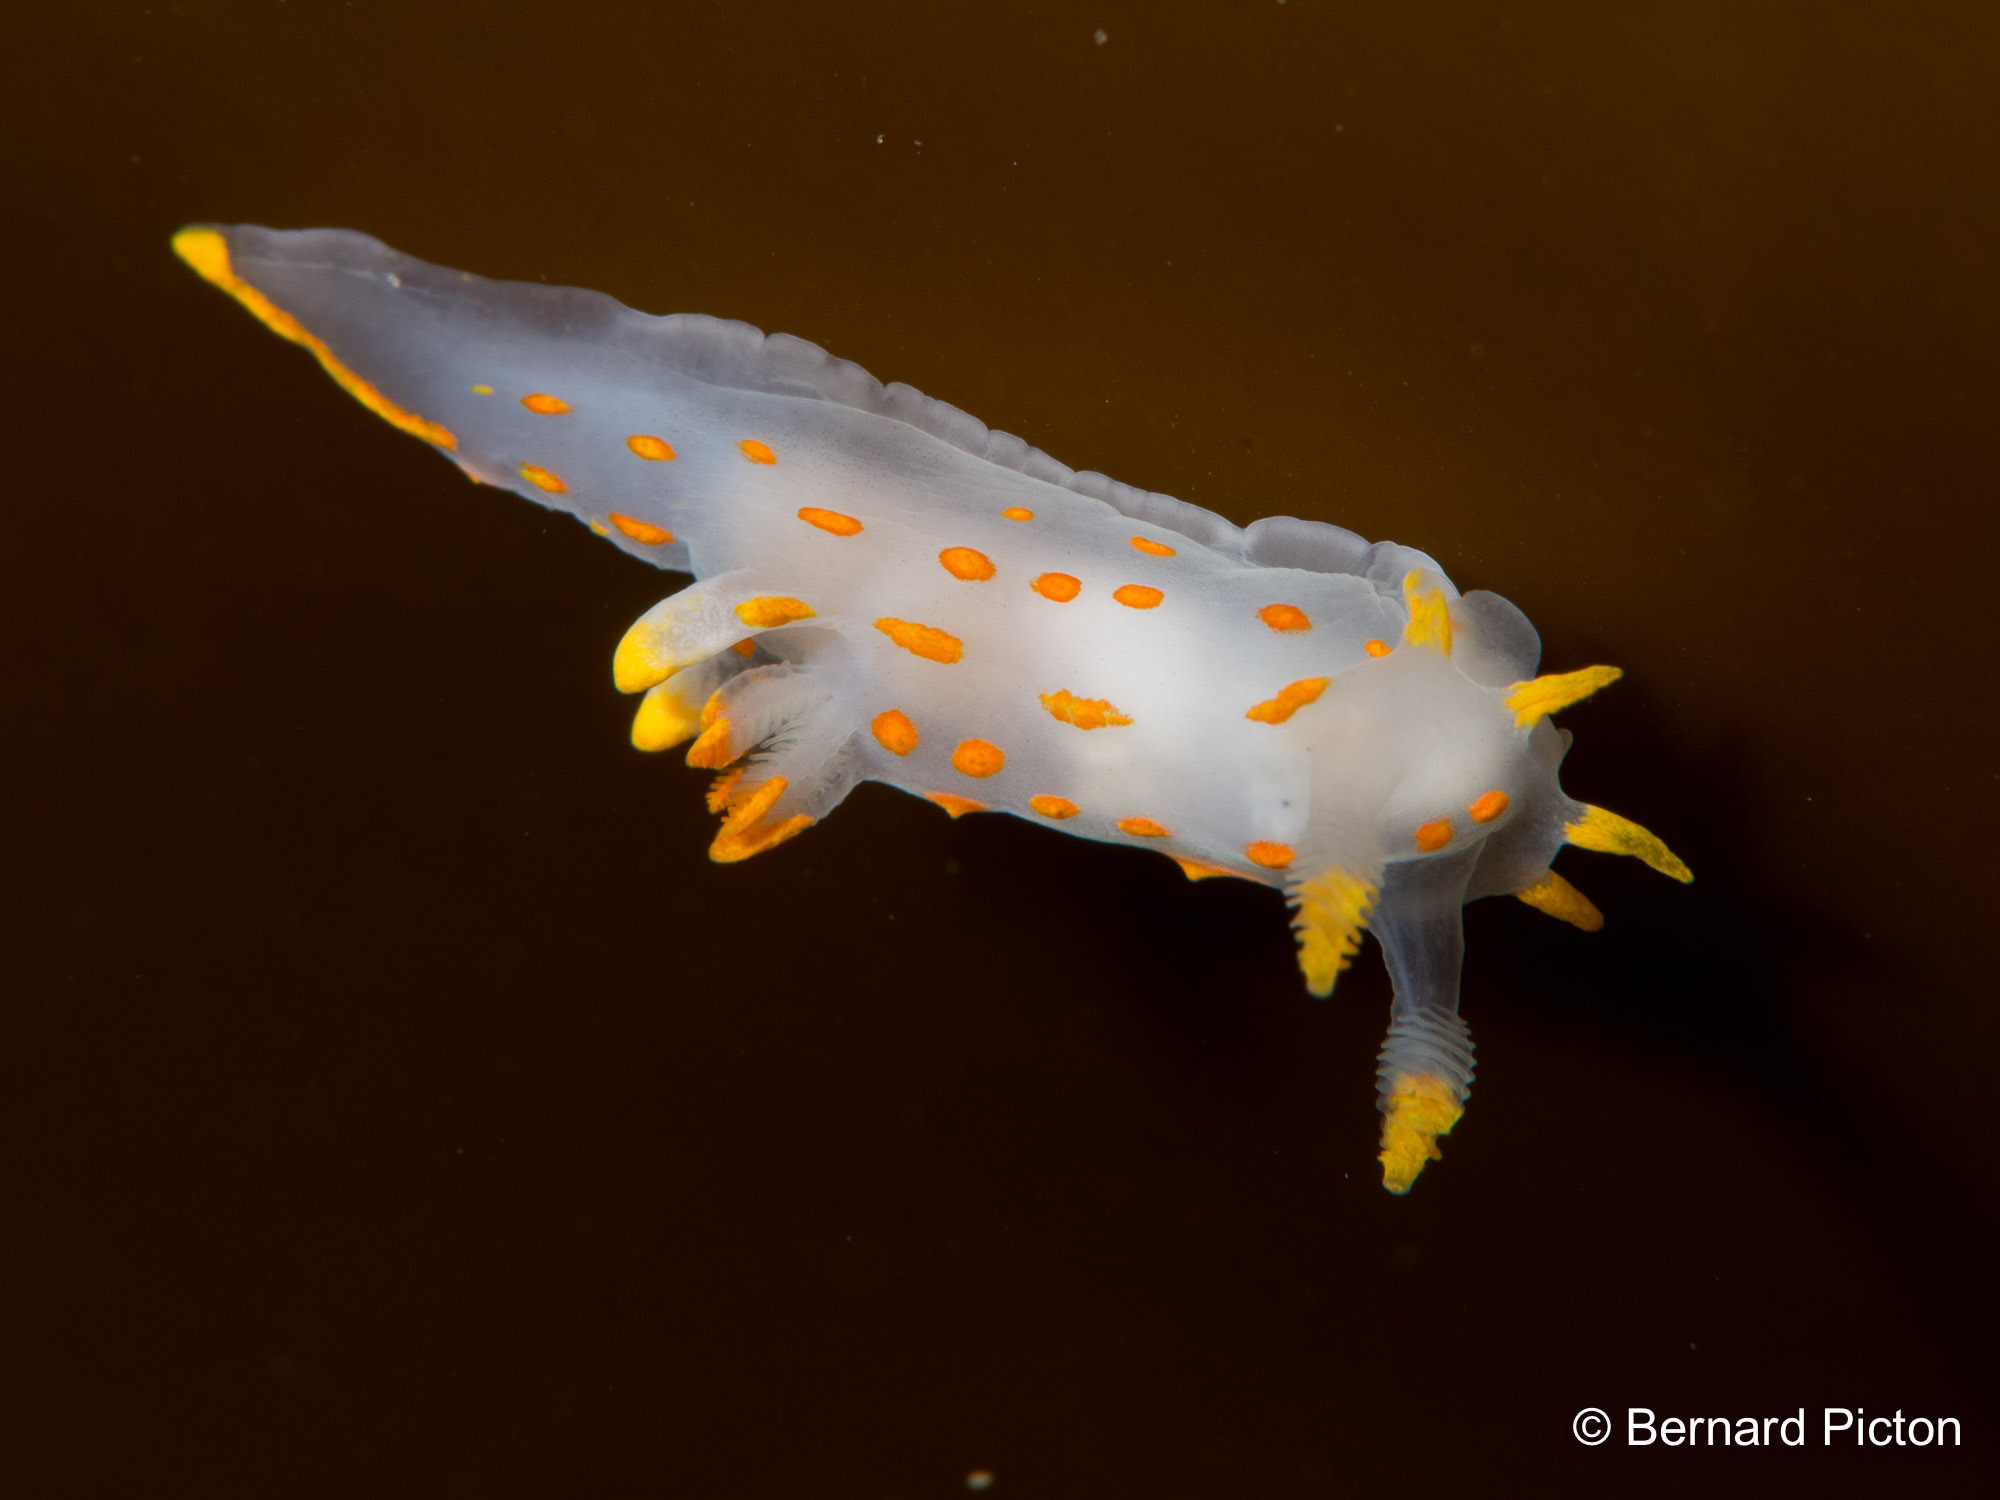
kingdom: Animalia
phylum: Mollusca
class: Gastropoda
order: Nudibranchia
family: Polyceridae
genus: Polycera
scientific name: Polycera quadrilineata
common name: Four-striped polycera
